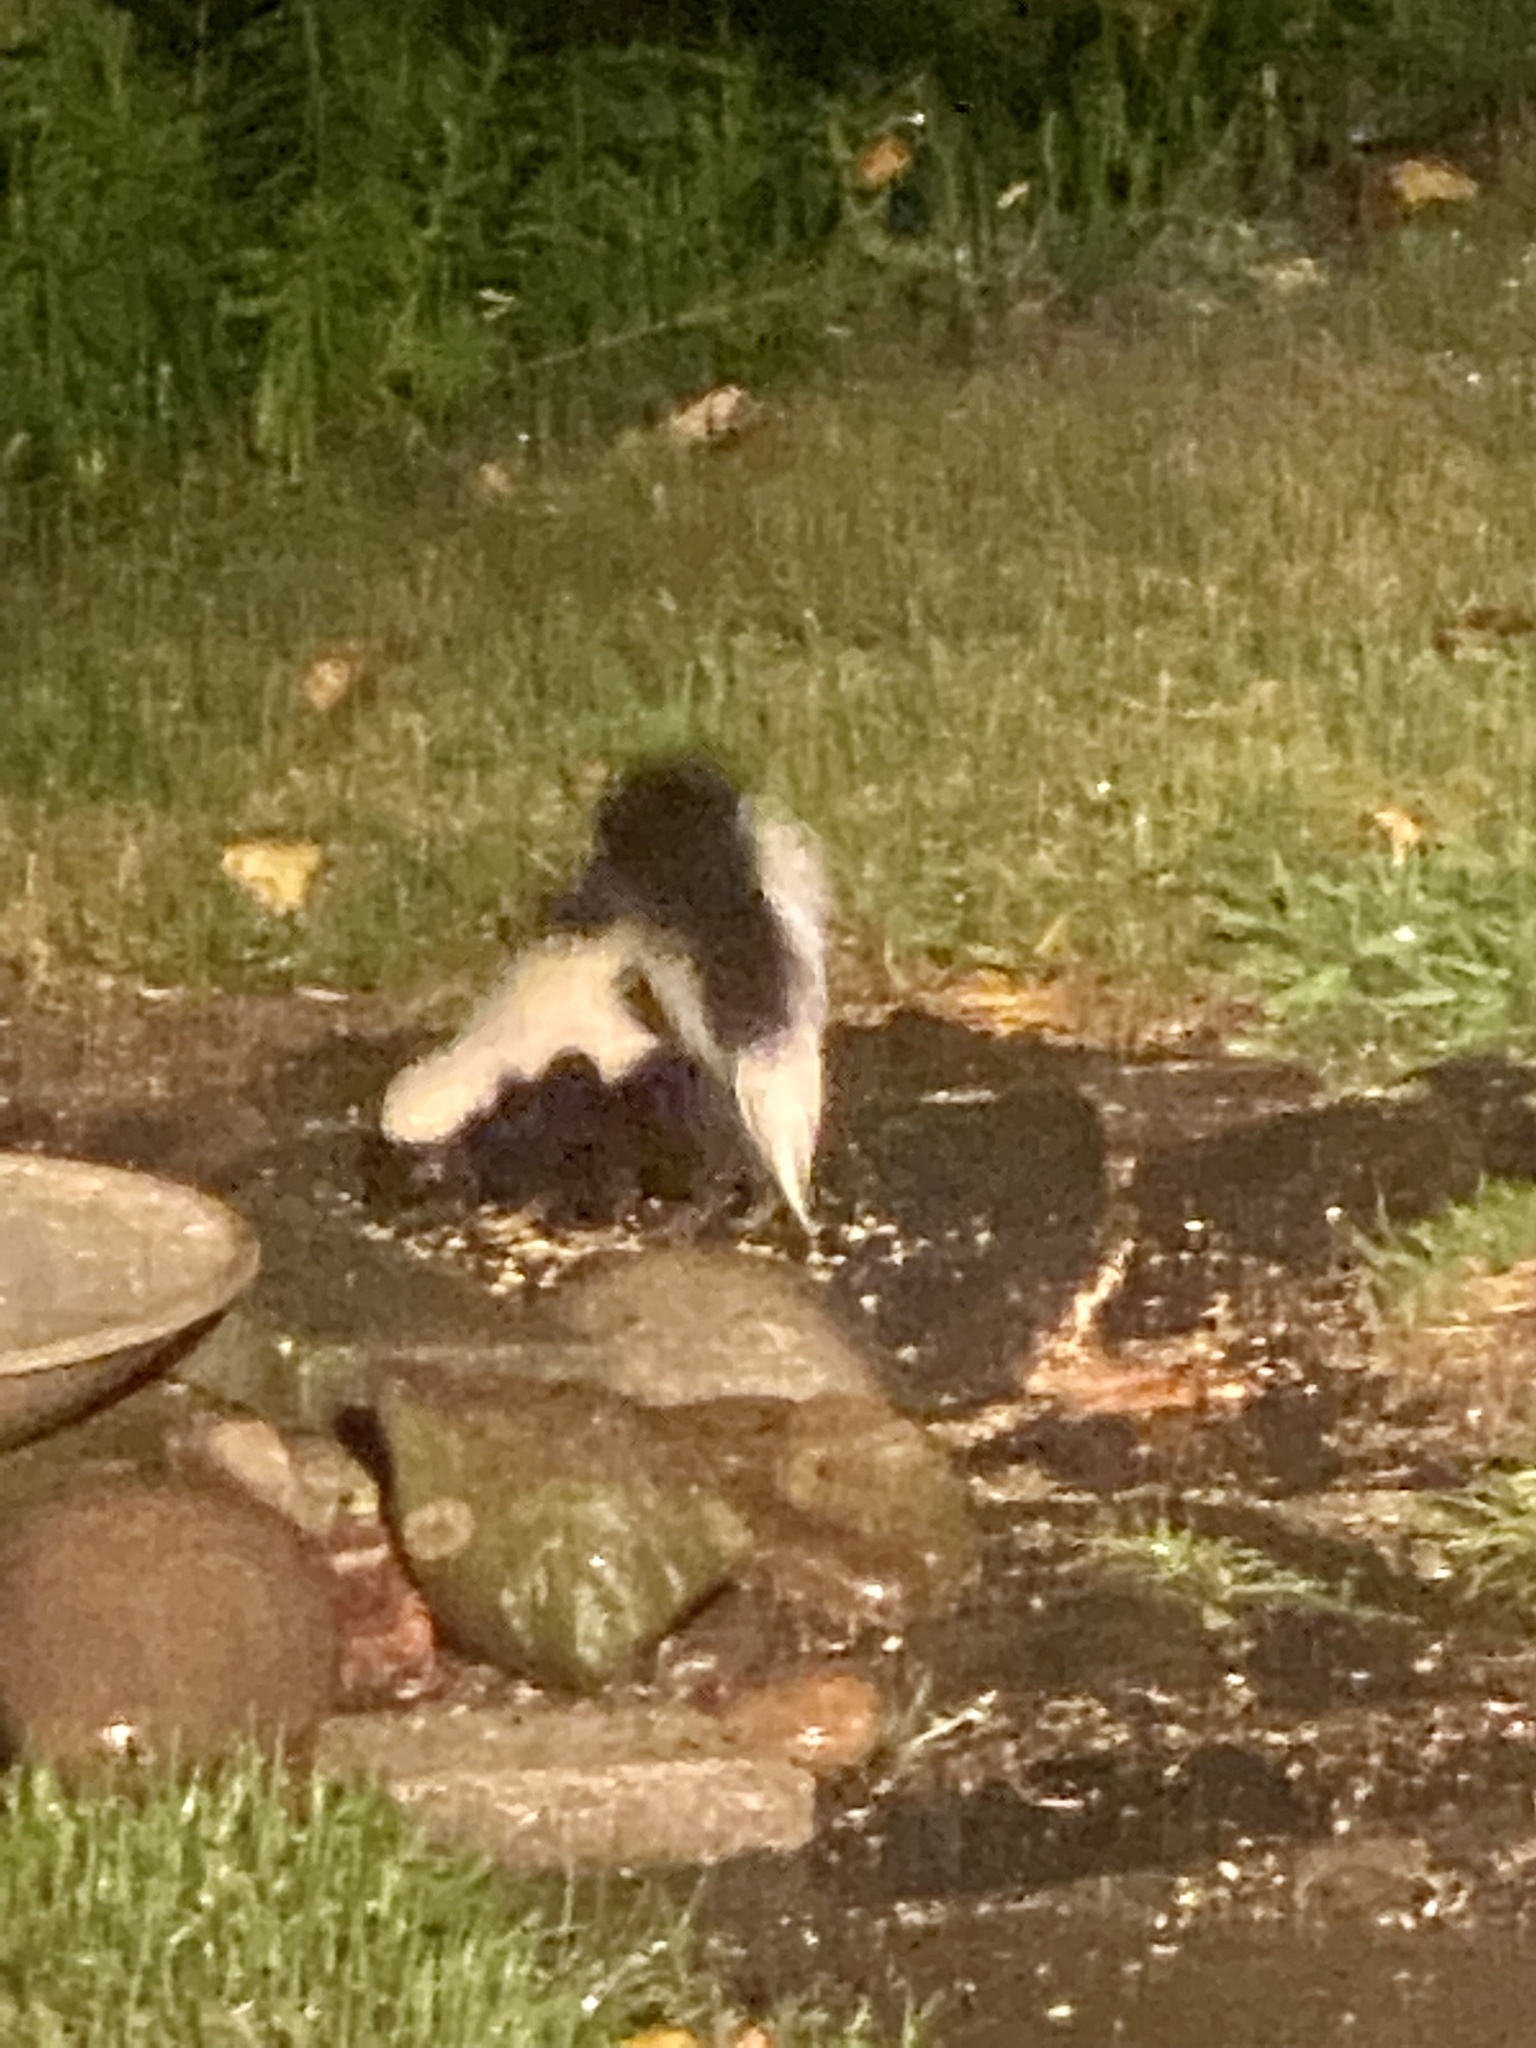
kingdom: Animalia
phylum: Chordata
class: Mammalia
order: Carnivora
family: Mephitidae
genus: Mephitis
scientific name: Mephitis mephitis
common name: Striped skunk
